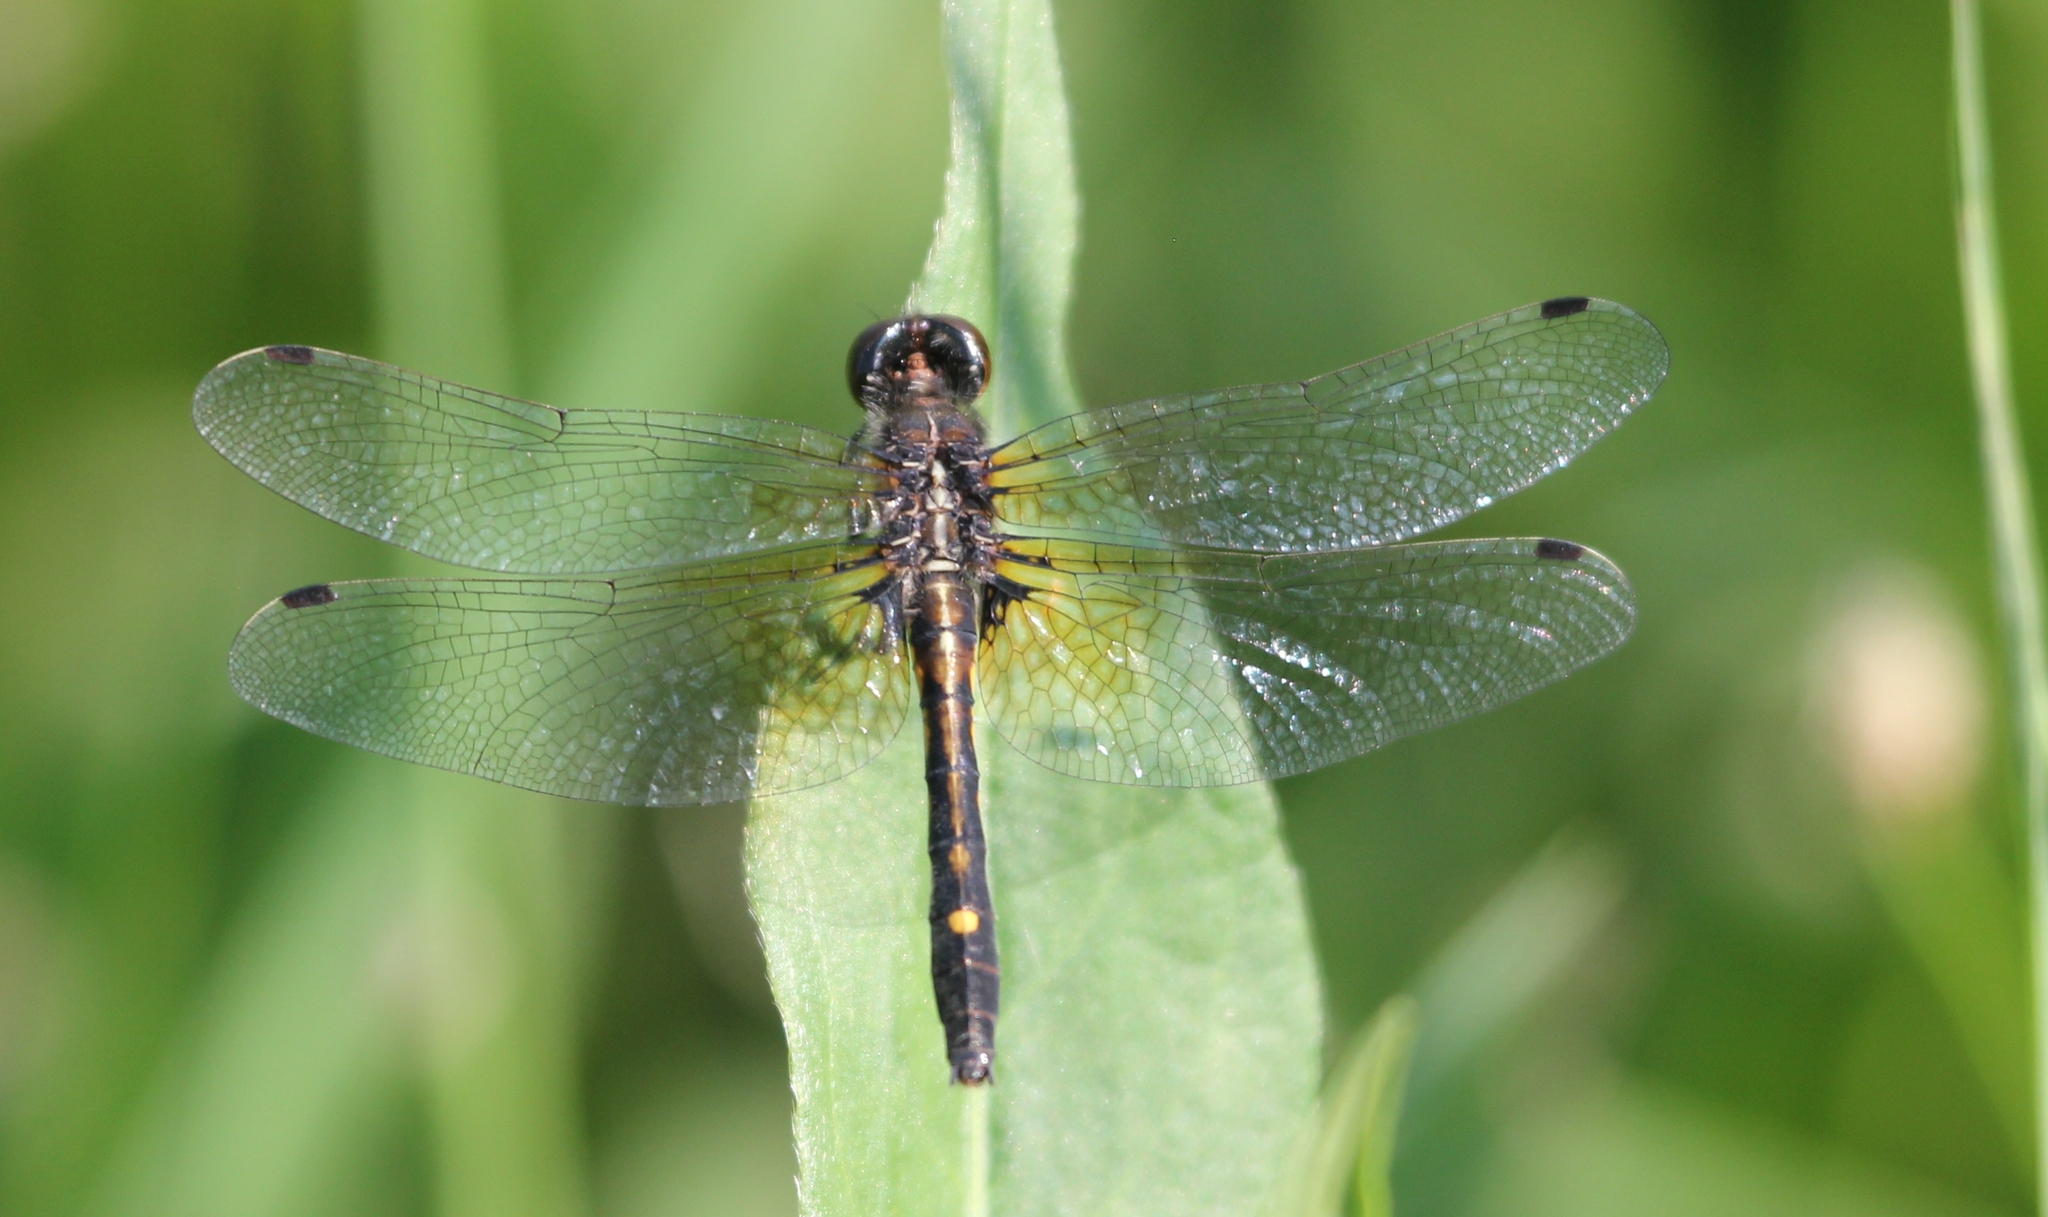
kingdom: Animalia
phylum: Arthropoda
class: Insecta
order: Odonata
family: Libellulidae
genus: Leucorrhinia
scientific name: Leucorrhinia intacta
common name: Dot-tailed whiteface
